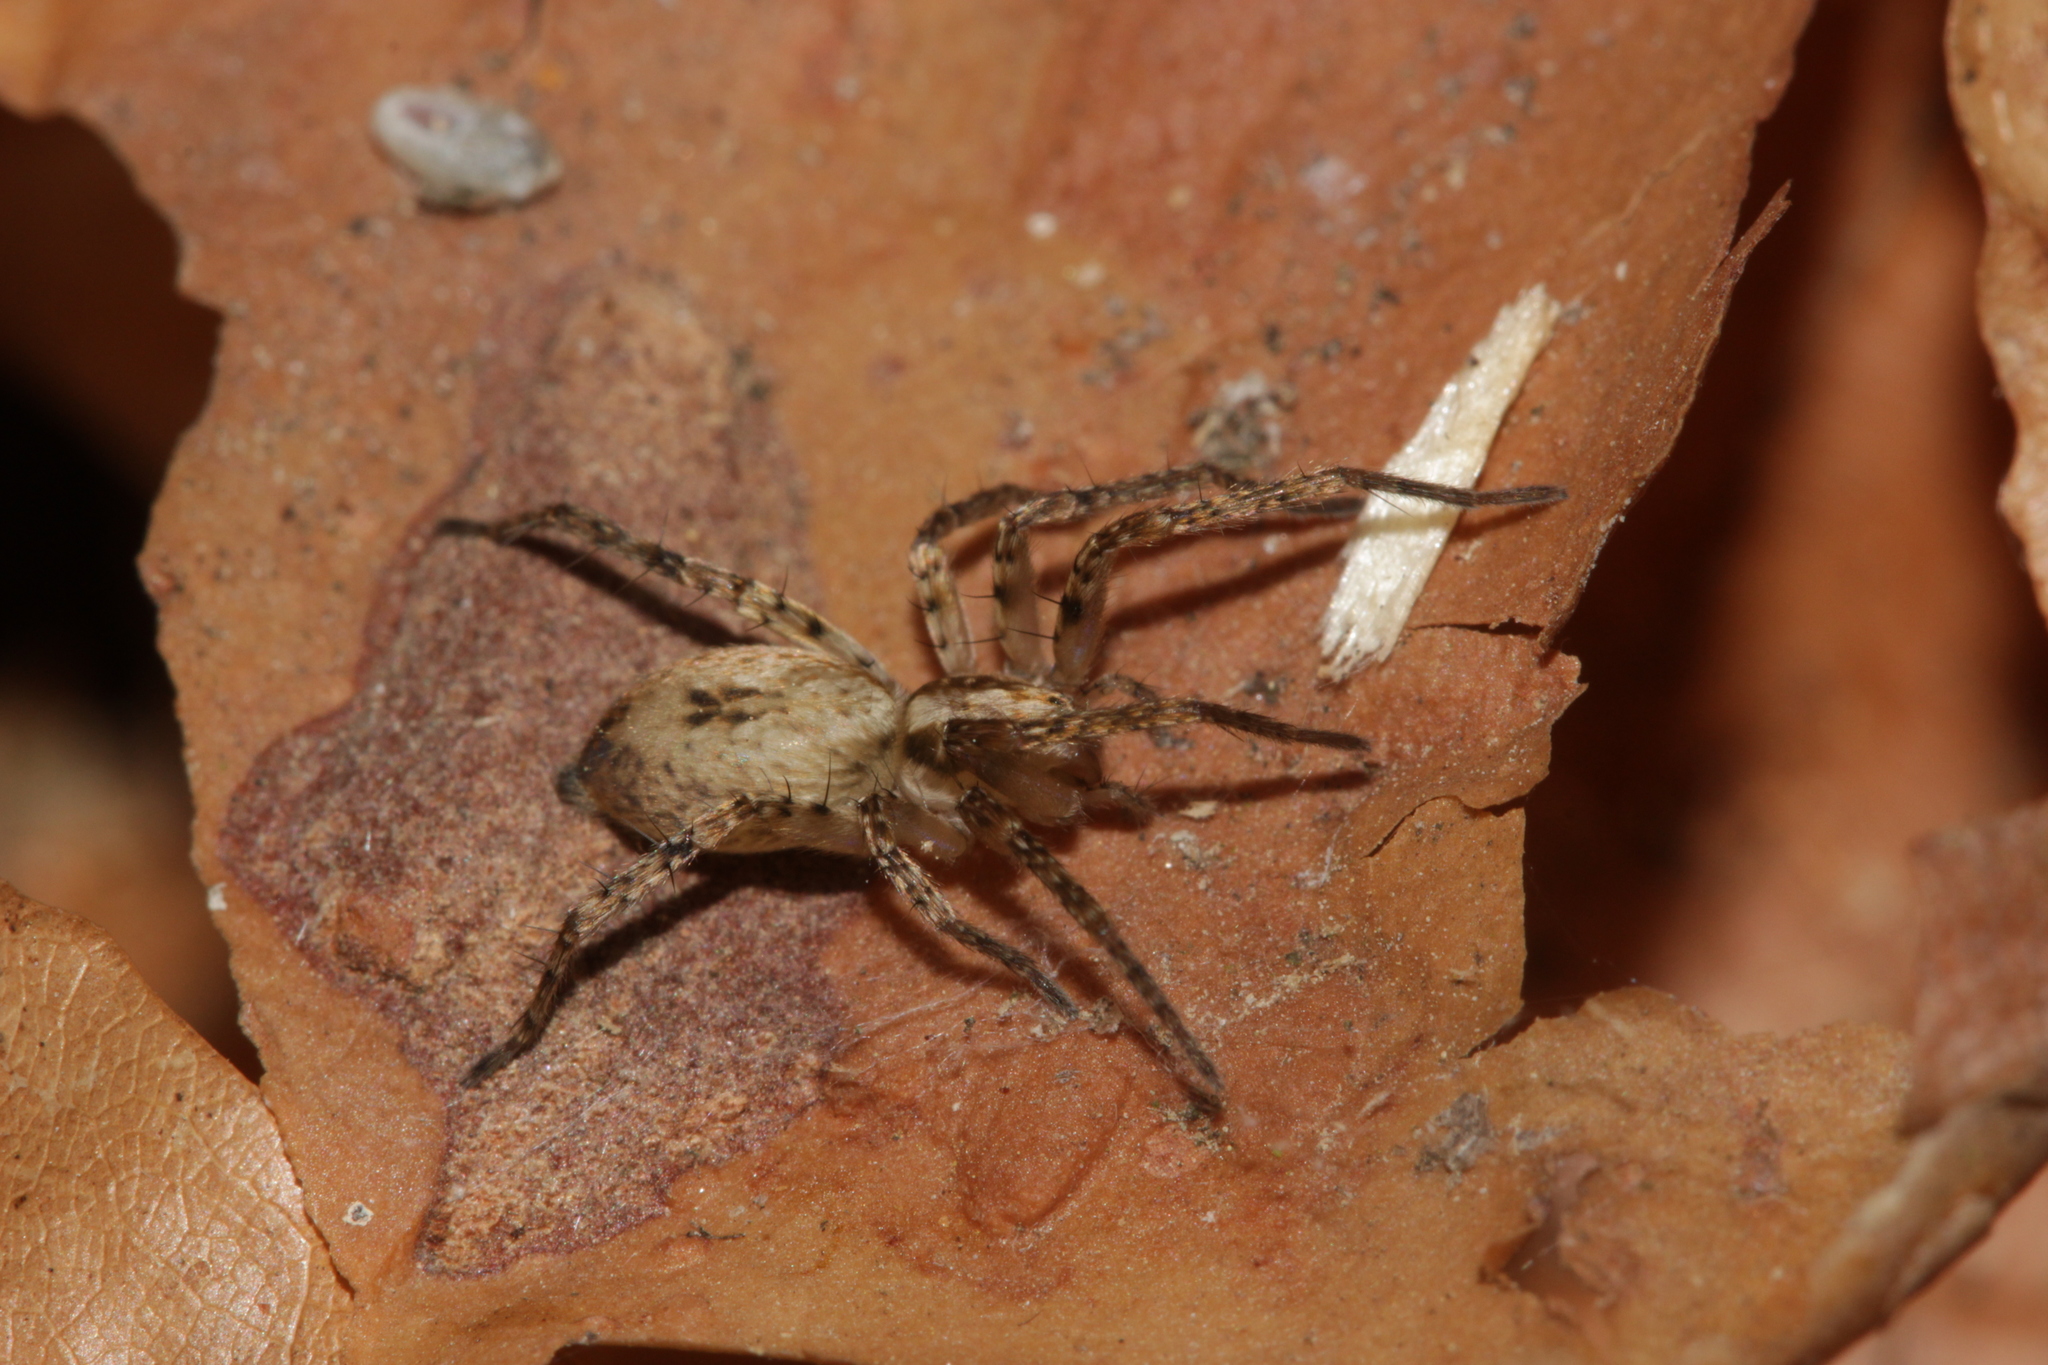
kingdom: Animalia
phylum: Arthropoda
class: Arachnida
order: Araneae
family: Anyphaenidae
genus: Anyphaena
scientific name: Anyphaena accentuata
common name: Buzzing spider
